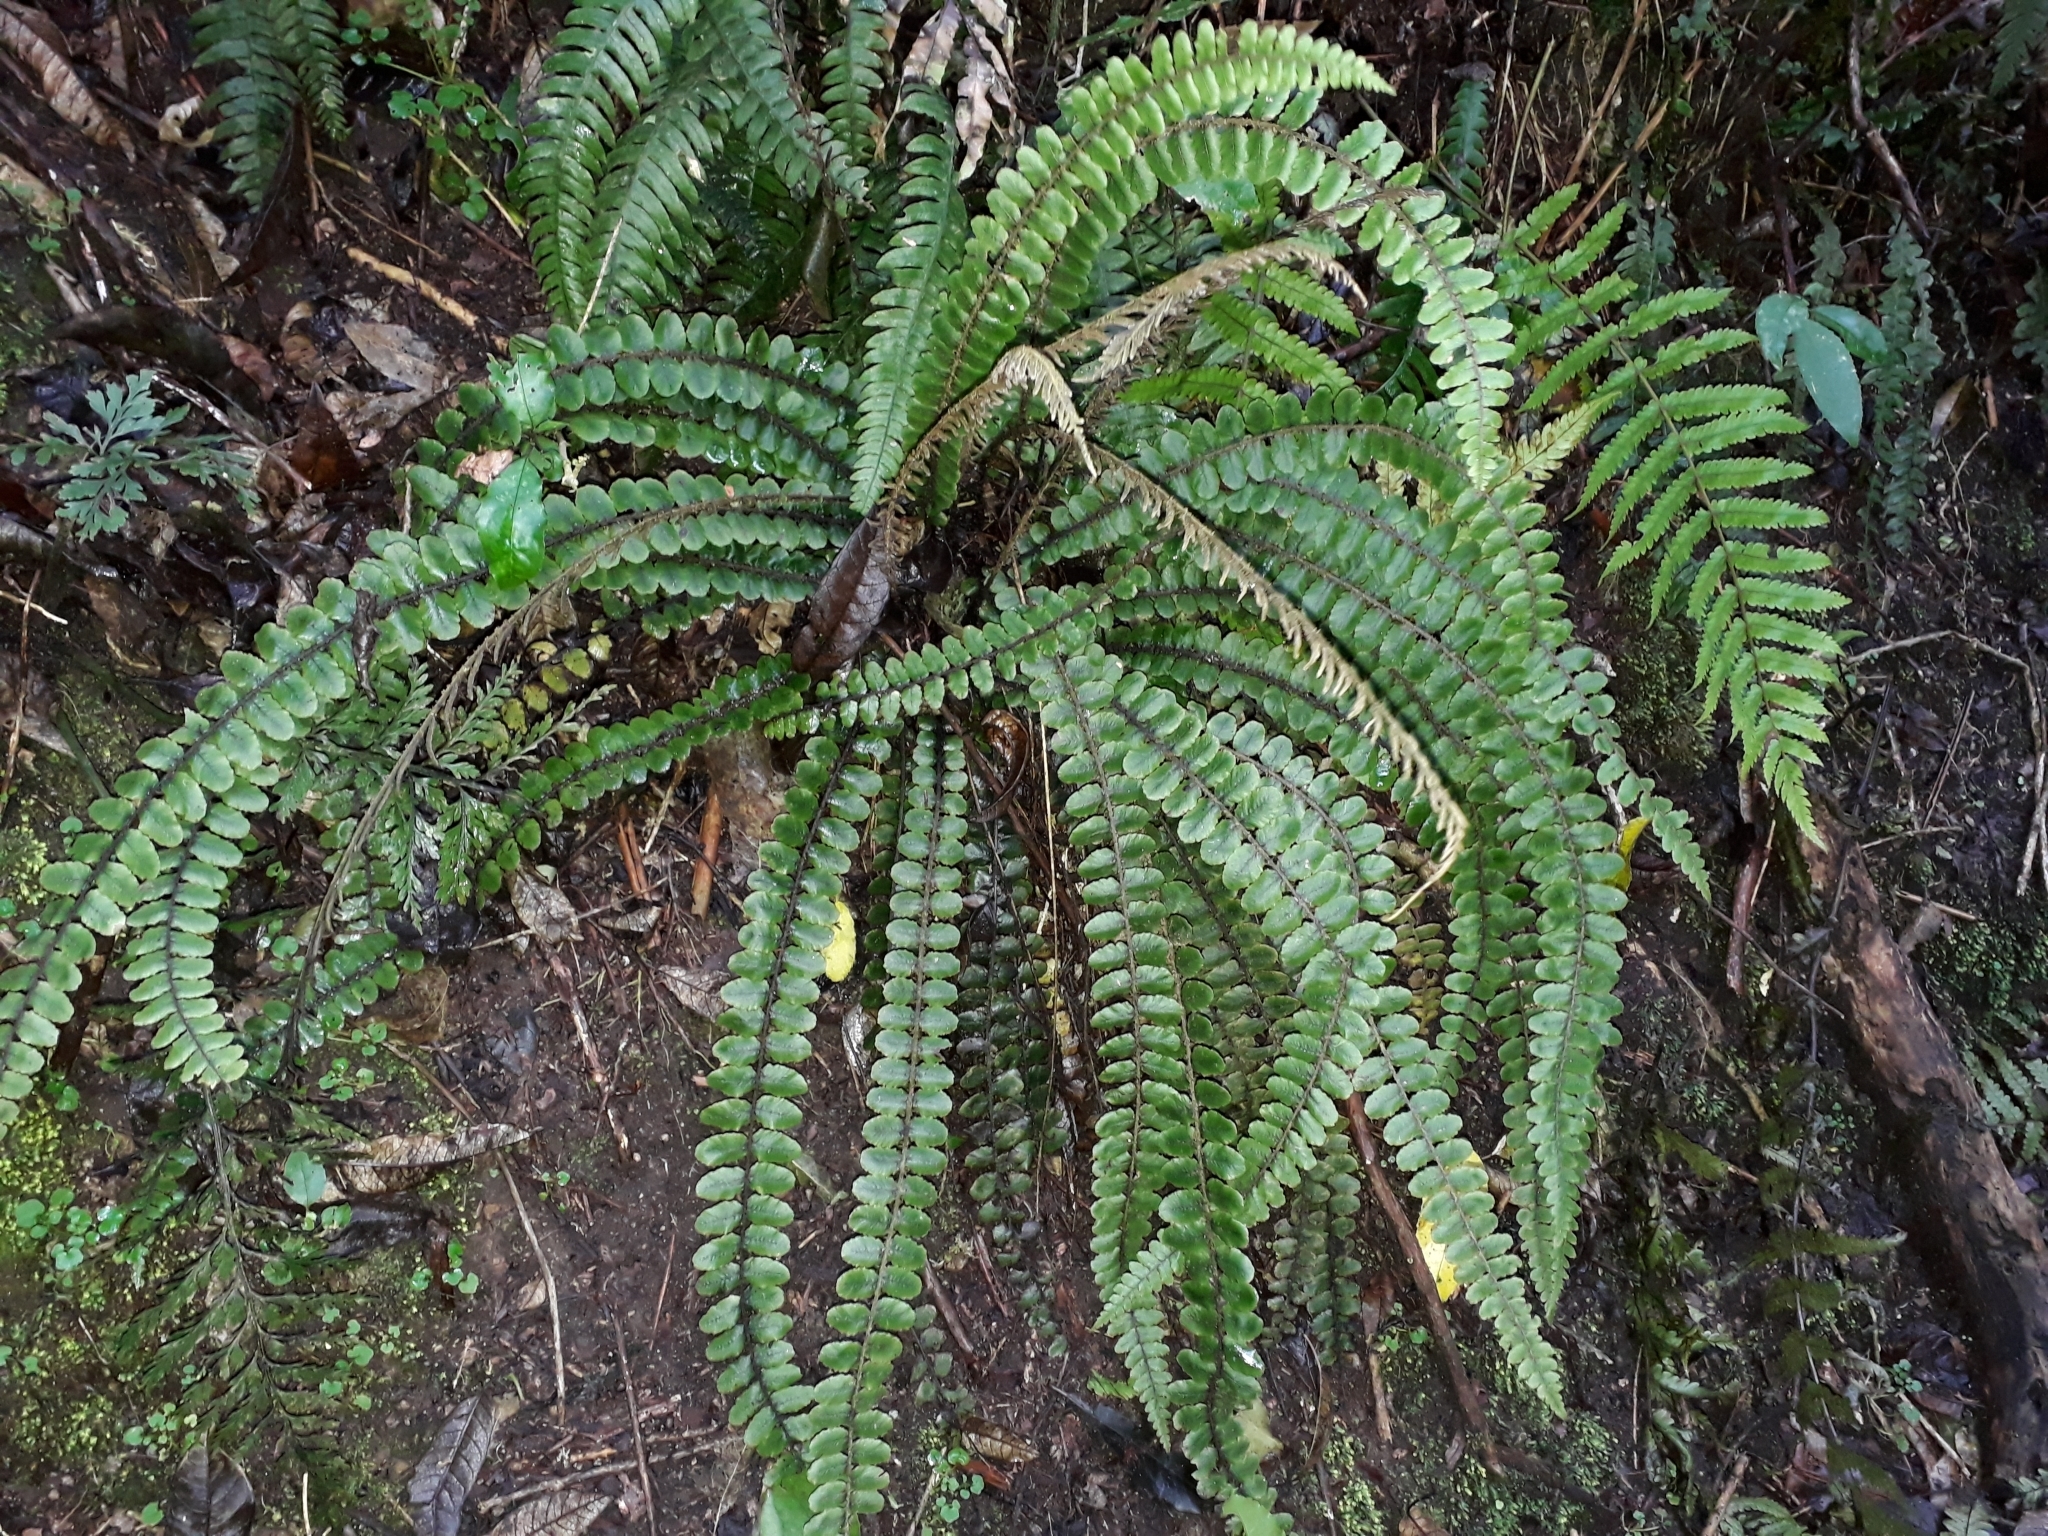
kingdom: Plantae
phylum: Tracheophyta
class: Polypodiopsida
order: Polypodiales
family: Blechnaceae
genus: Cranfillia
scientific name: Cranfillia fluviatilis
